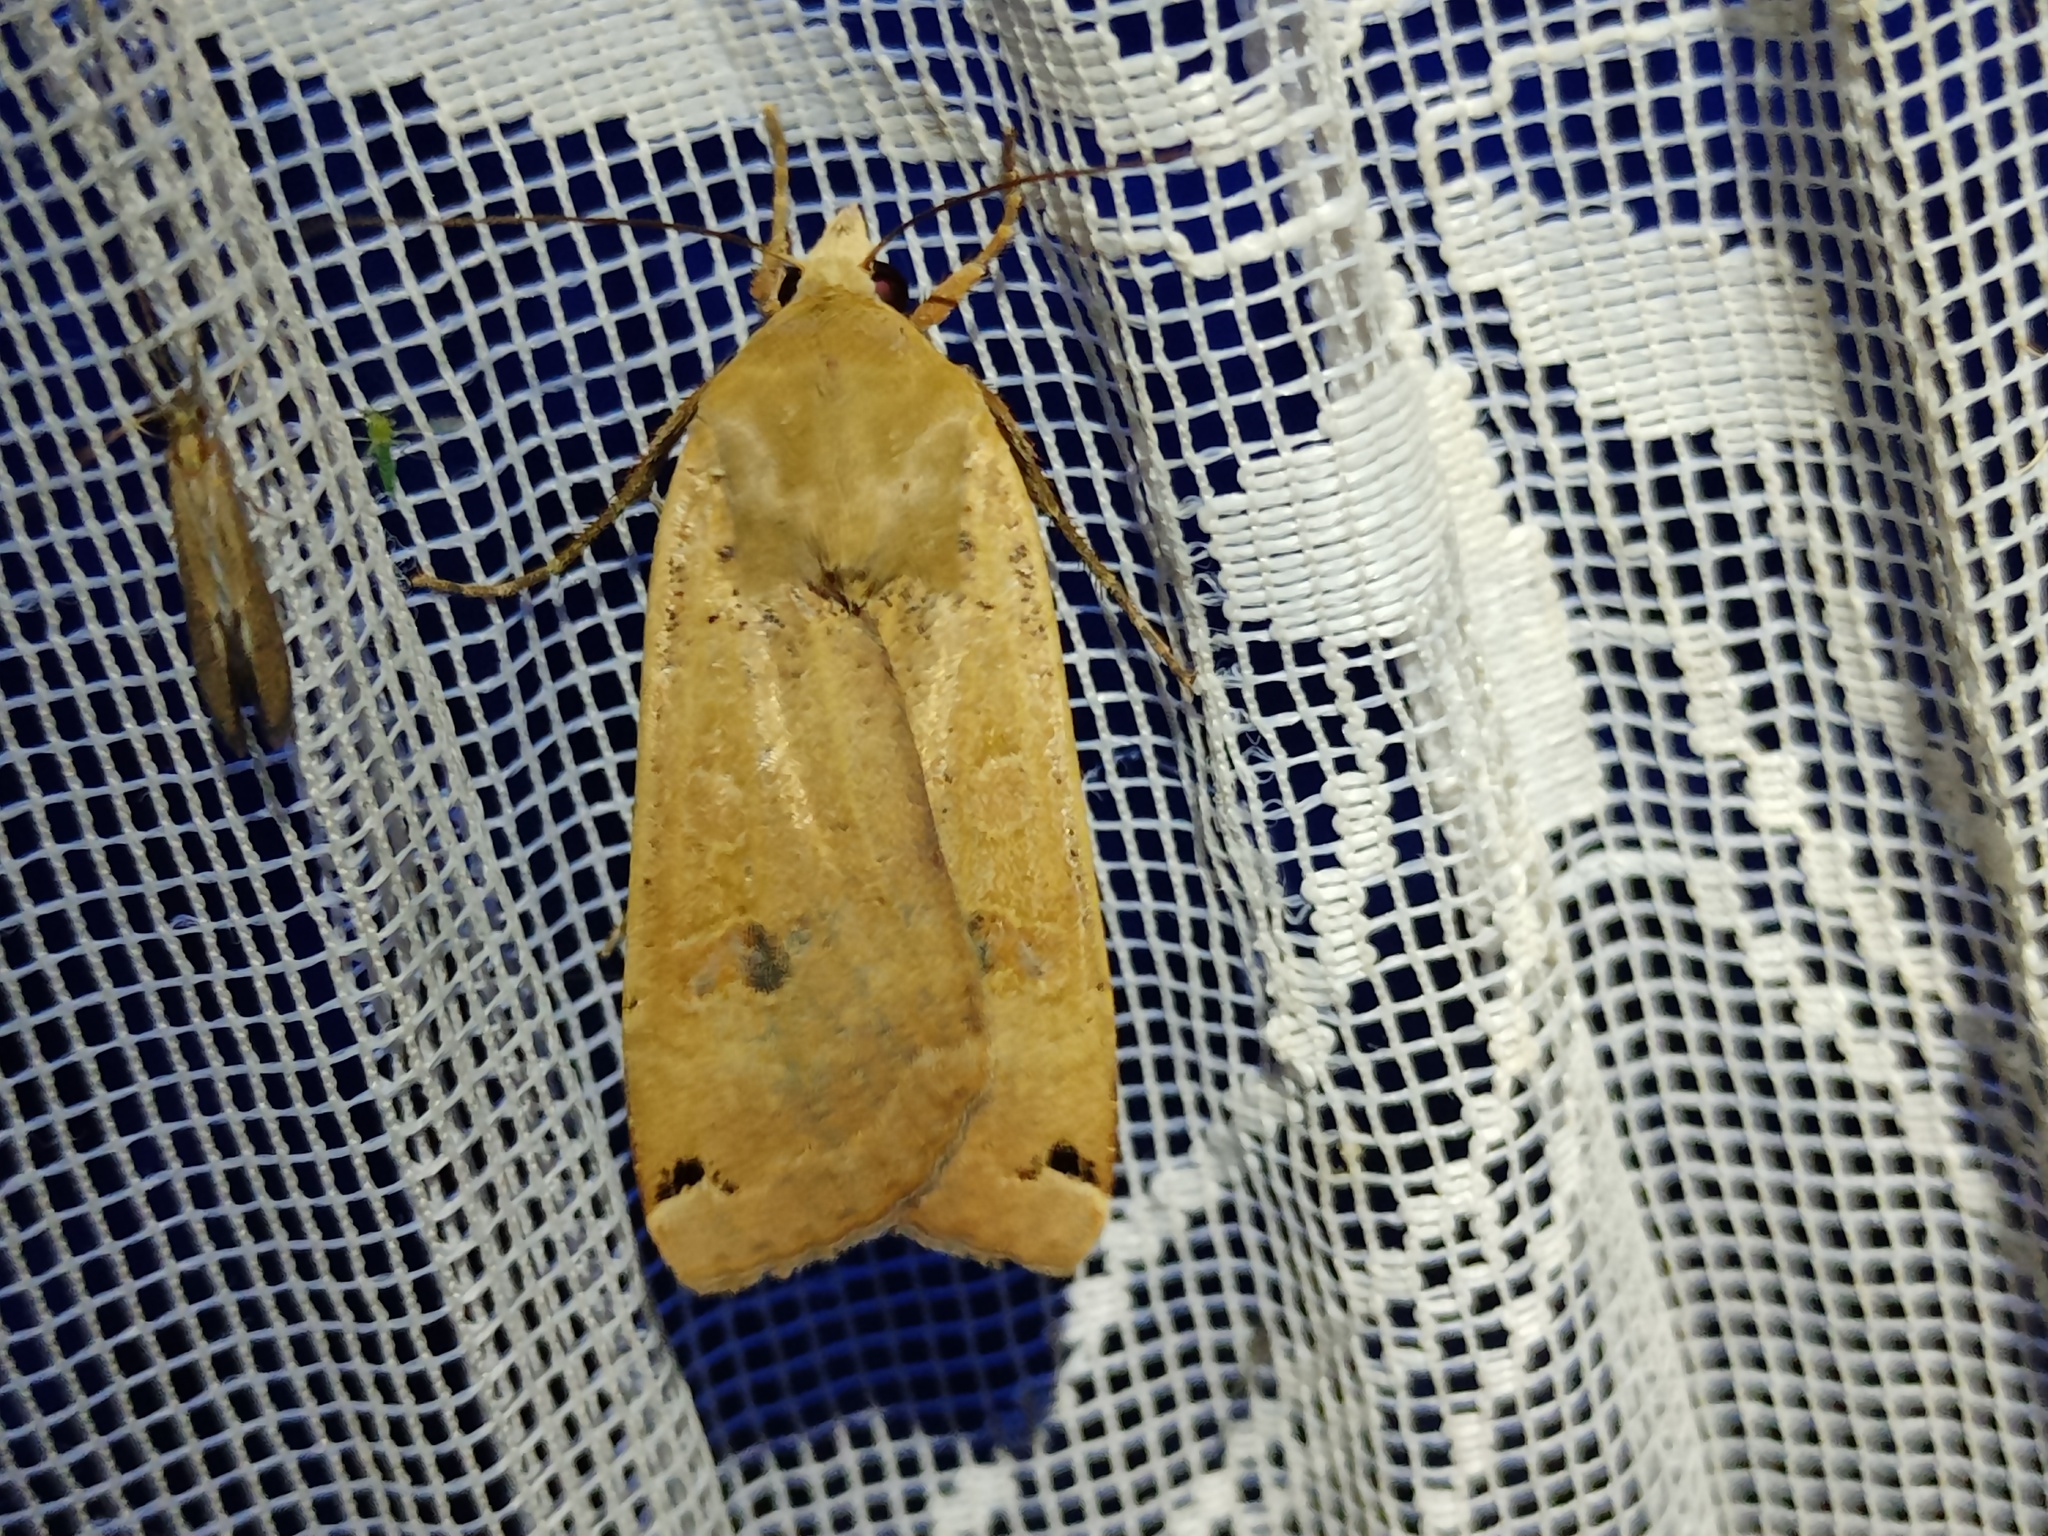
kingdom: Animalia
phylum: Arthropoda
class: Insecta
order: Lepidoptera
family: Noctuidae
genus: Noctua
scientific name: Noctua pronuba
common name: Large yellow underwing
